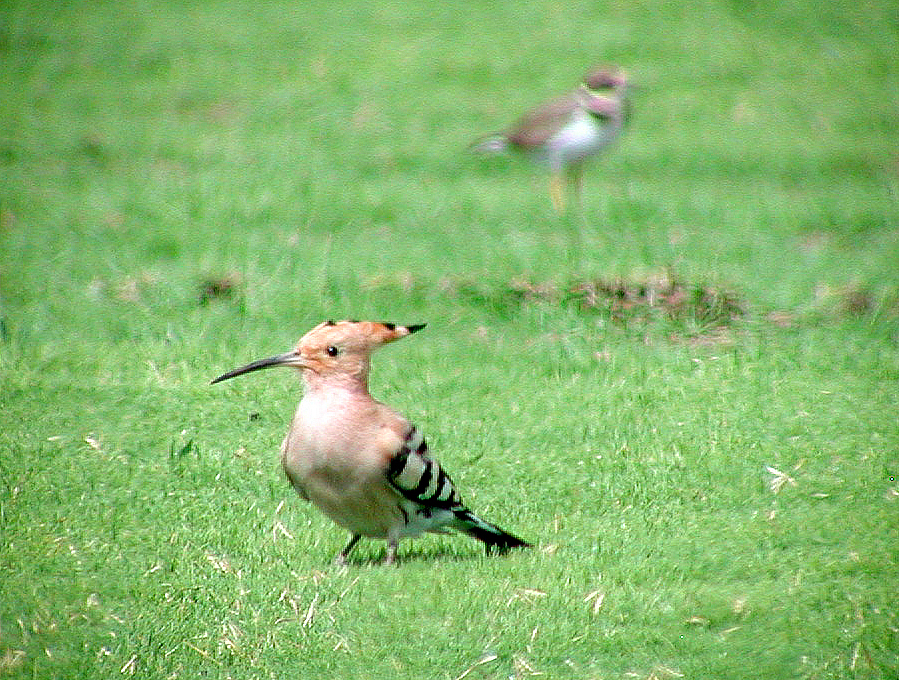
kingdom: Animalia
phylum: Chordata
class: Aves
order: Bucerotiformes
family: Upupidae
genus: Upupa
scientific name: Upupa epops
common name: Eurasian hoopoe
